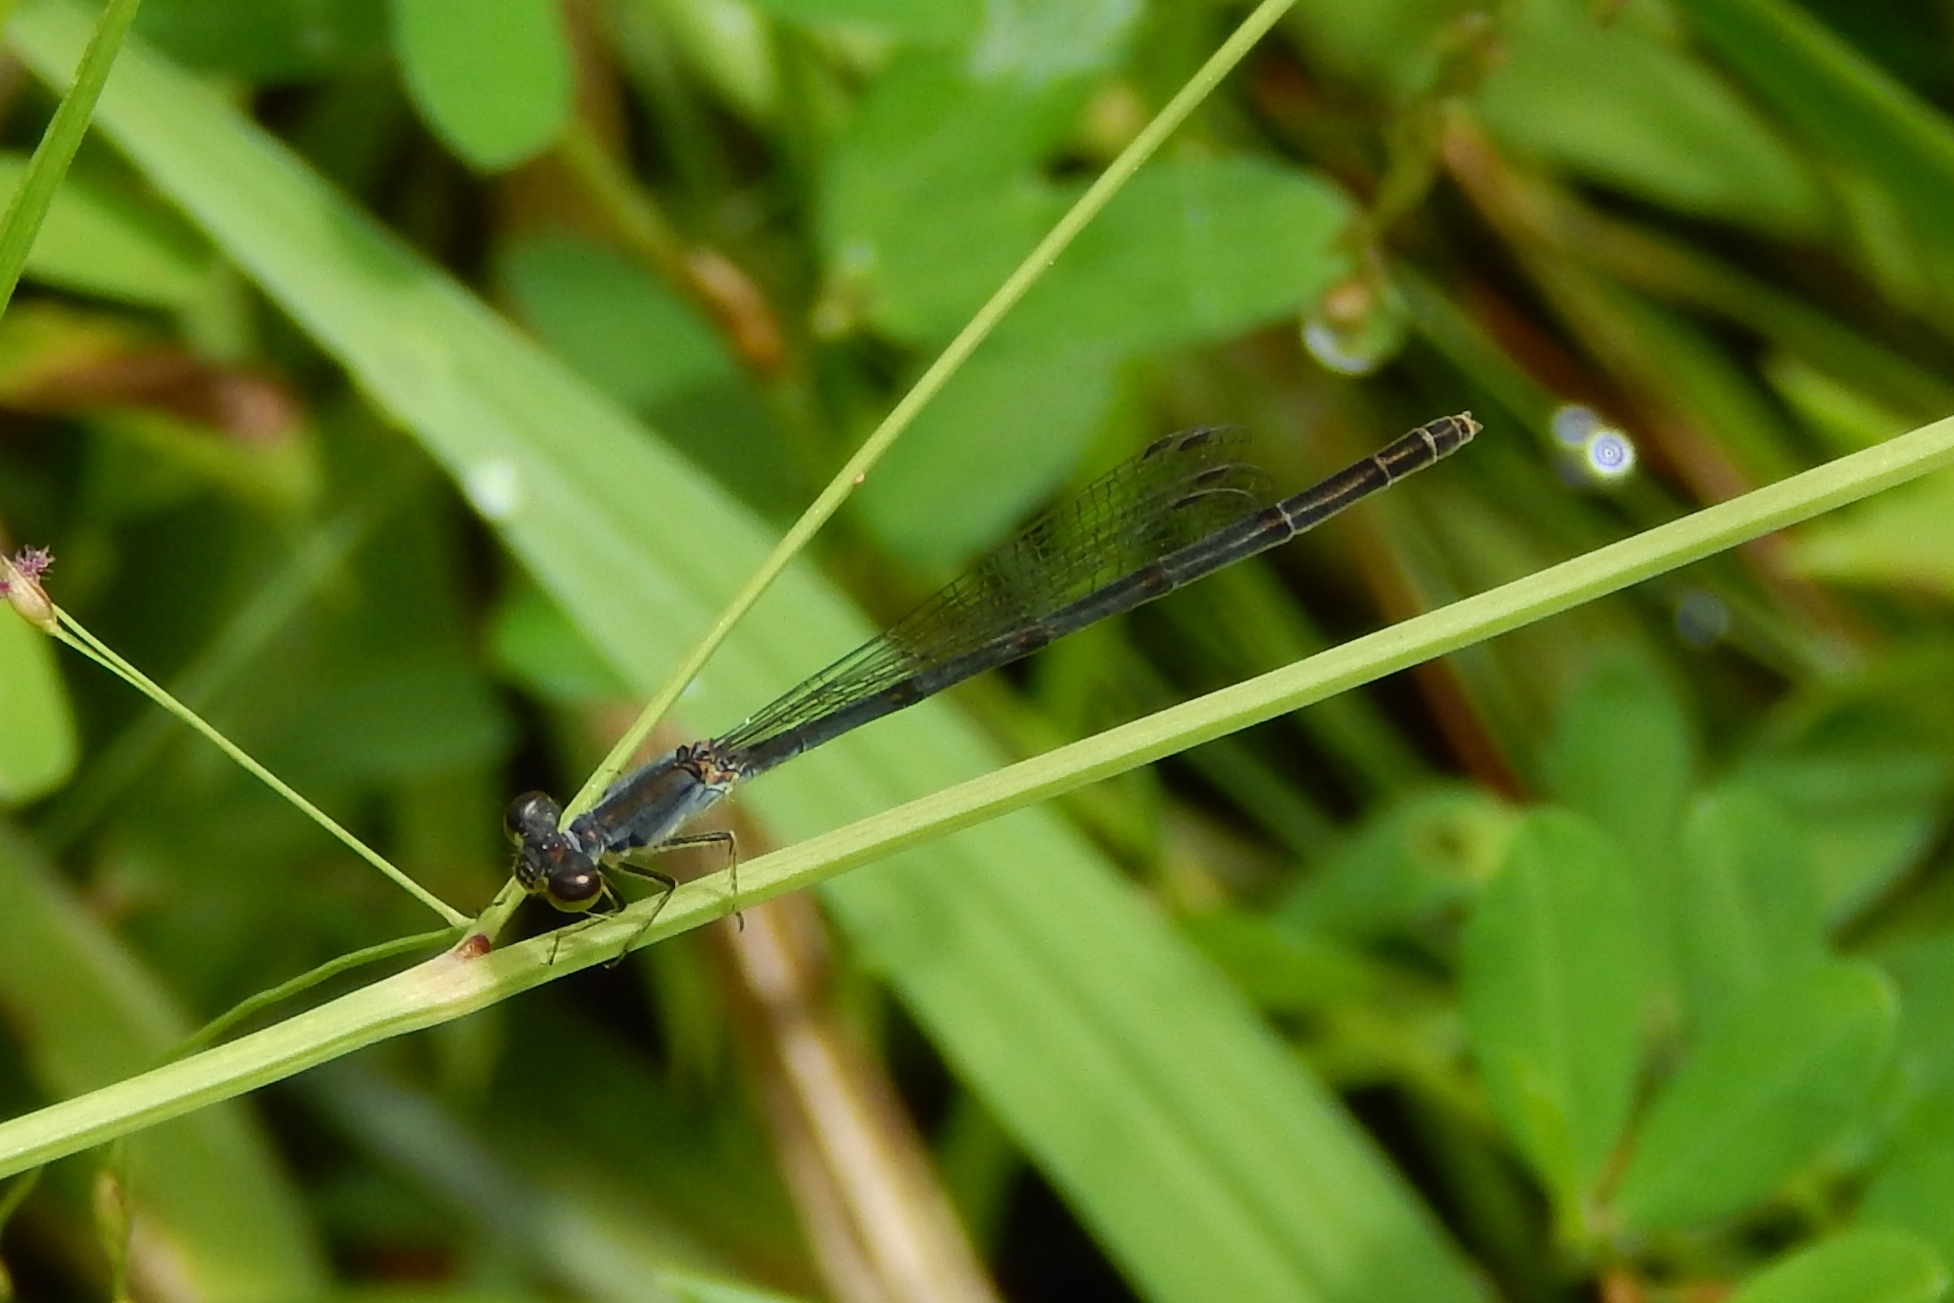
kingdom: Animalia
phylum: Arthropoda
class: Insecta
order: Odonata
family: Coenagrionidae
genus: Ischnura
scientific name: Ischnura posita
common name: Fragile forktail
